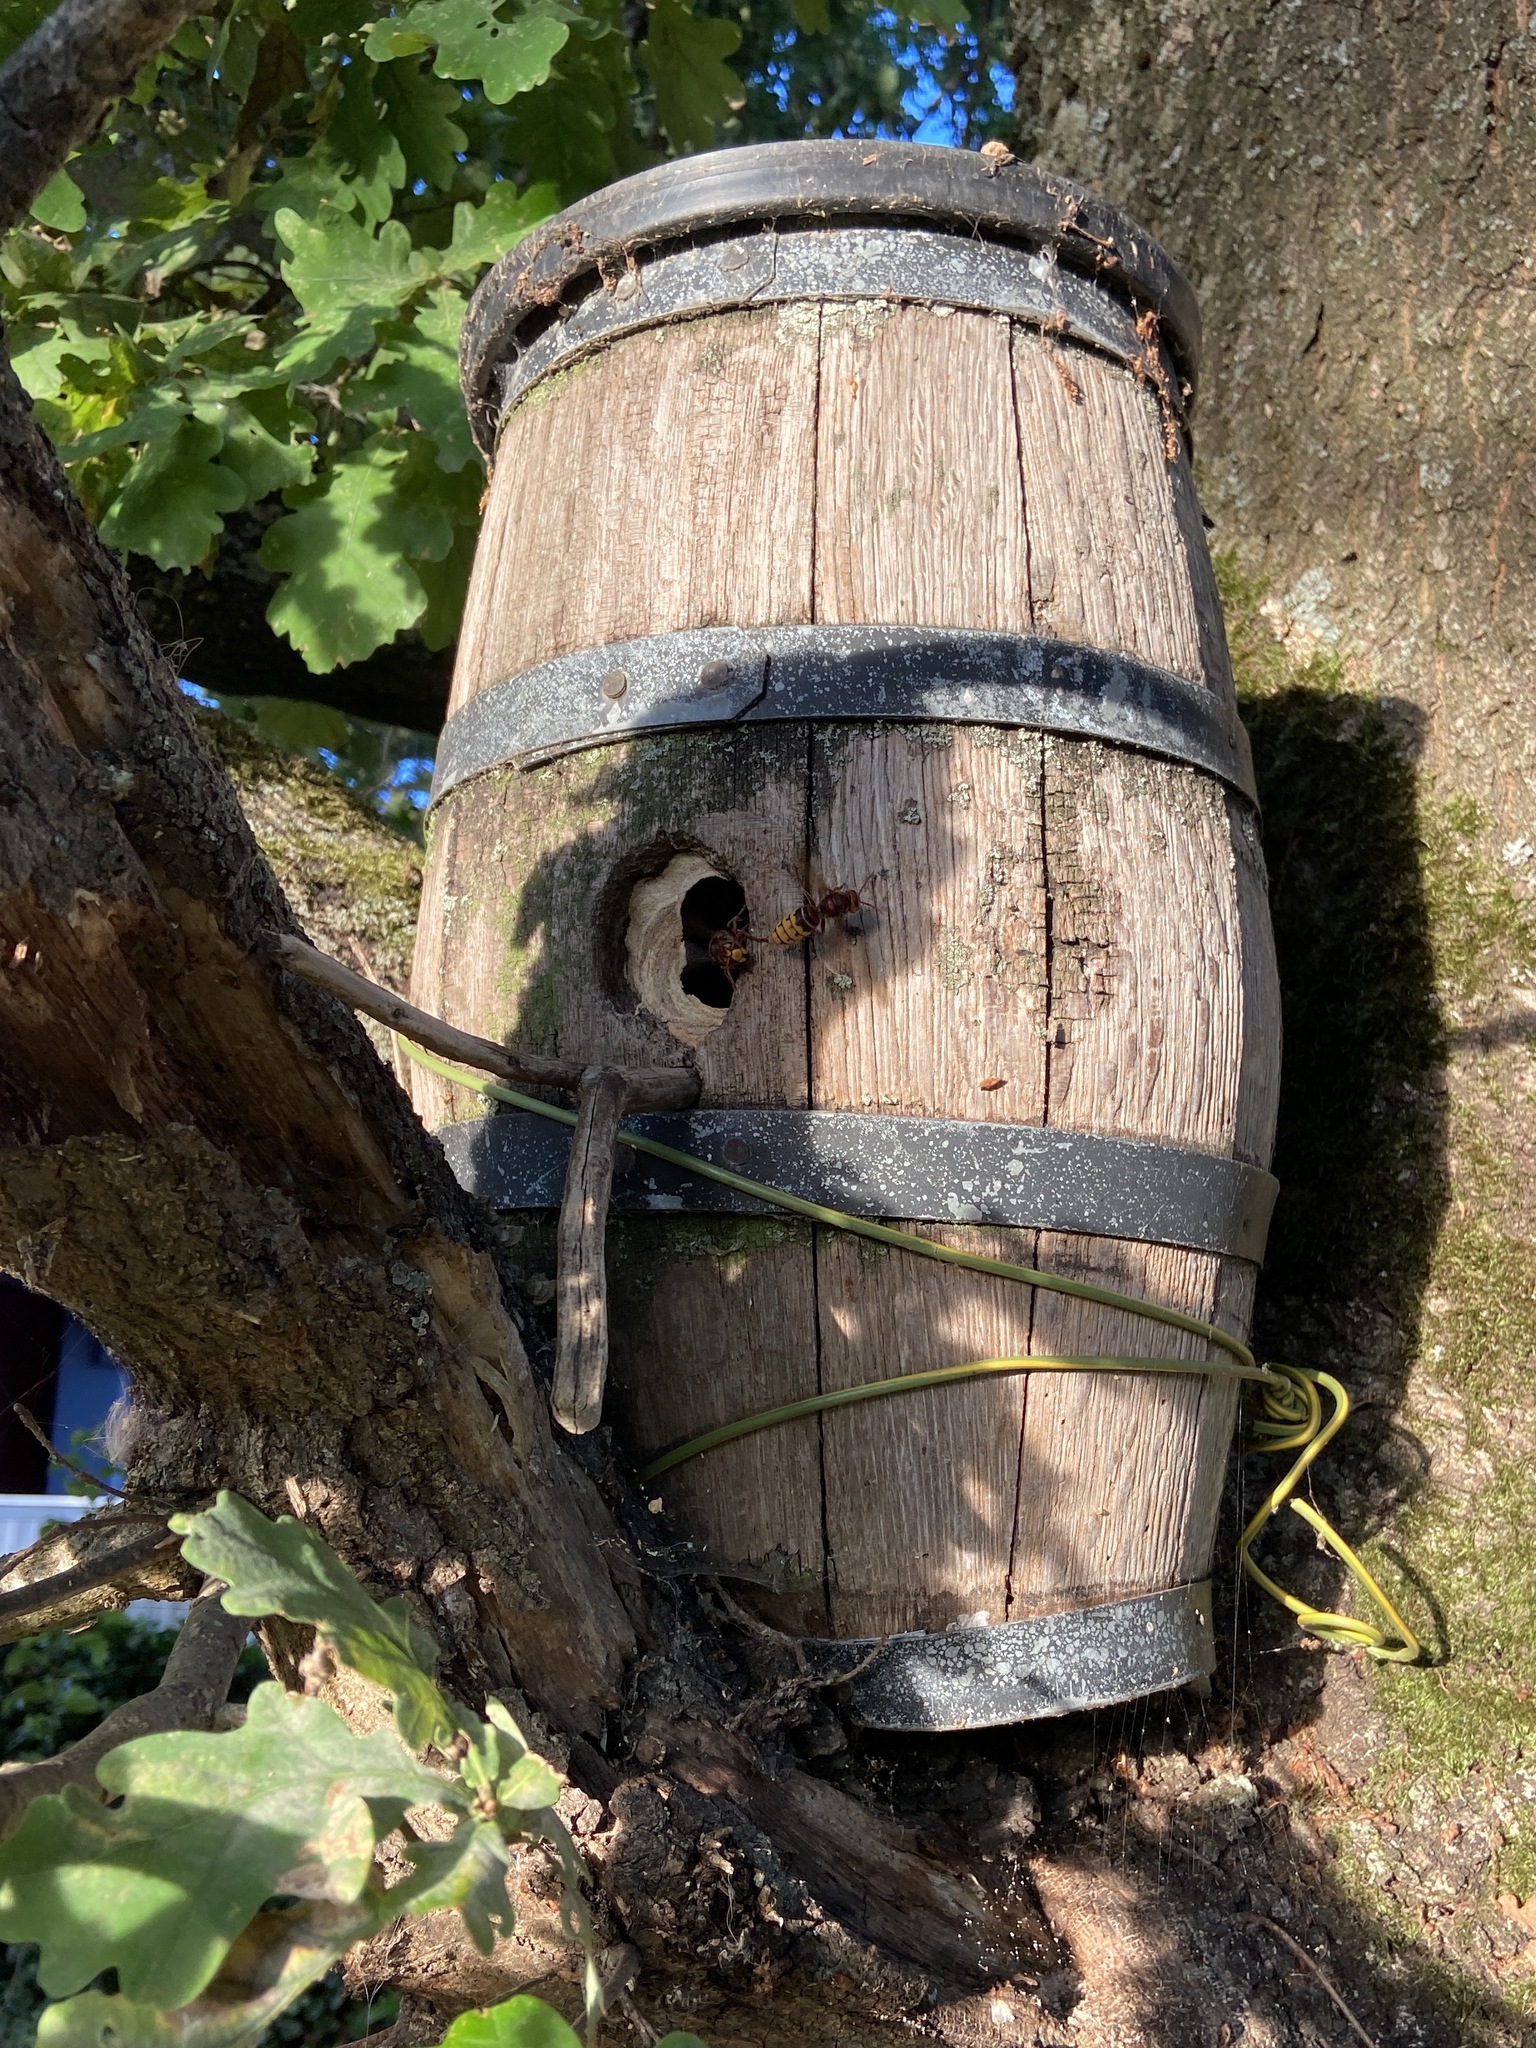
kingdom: Animalia
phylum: Arthropoda
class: Insecta
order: Hymenoptera
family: Vespidae
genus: Vespa
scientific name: Vespa crabro
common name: Hornet
